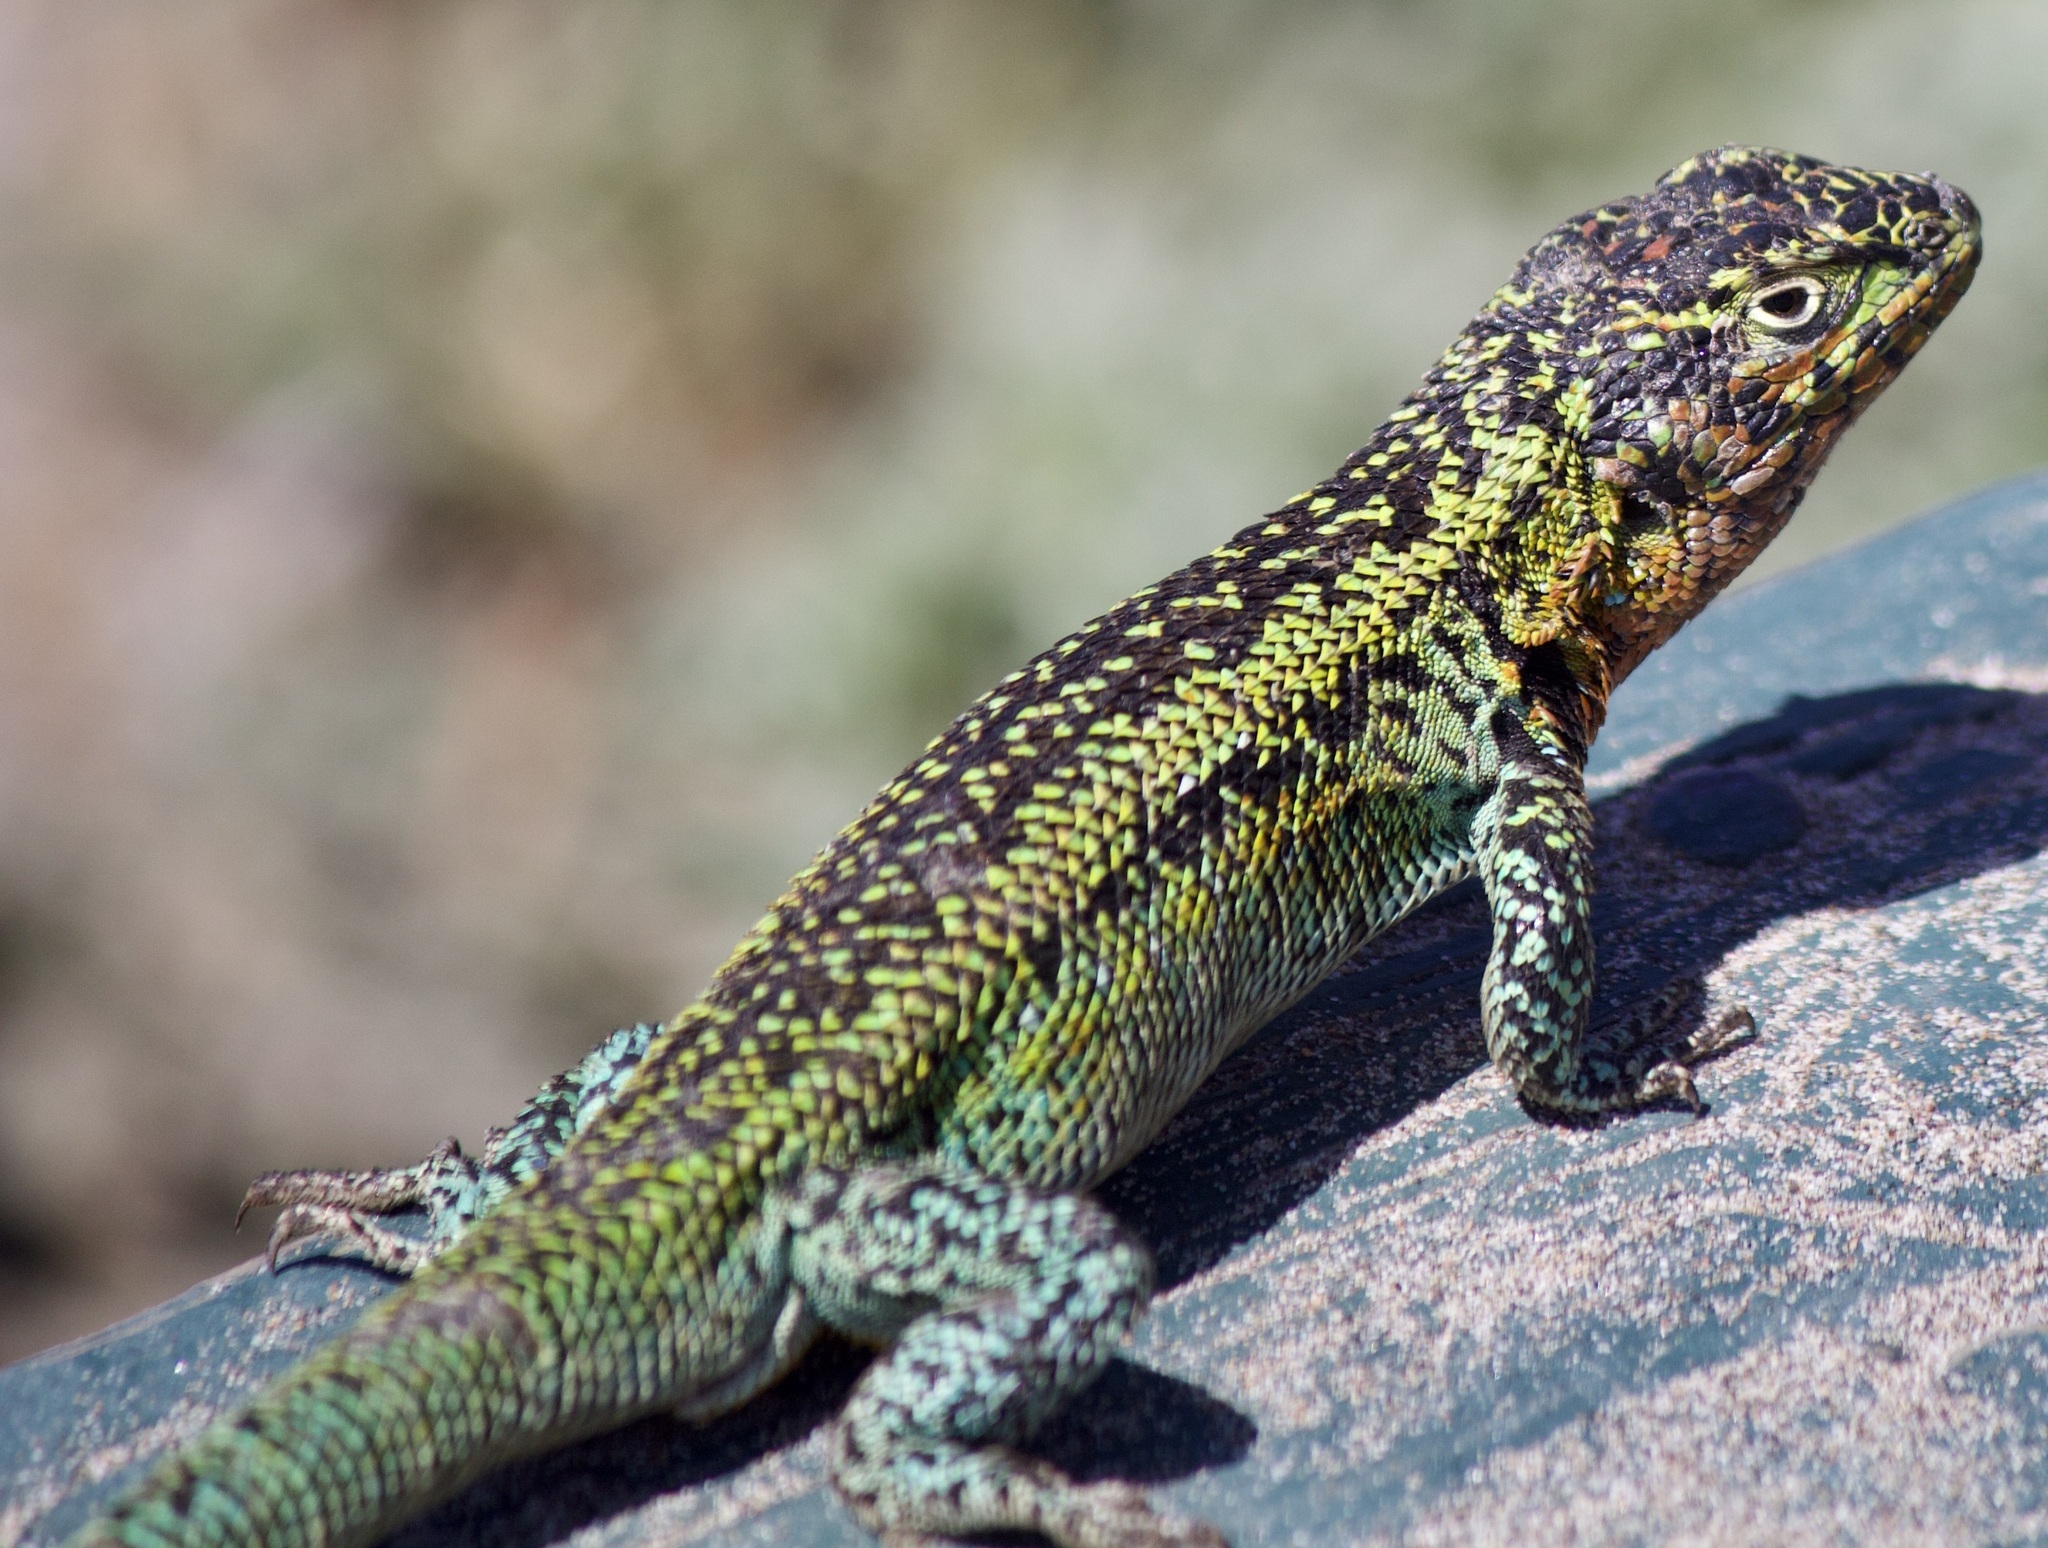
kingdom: Animalia
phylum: Chordata
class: Squamata
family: Liolaemidae
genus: Liolaemus
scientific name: Liolaemus zapallarensis
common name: Zapallaren tree iguana
